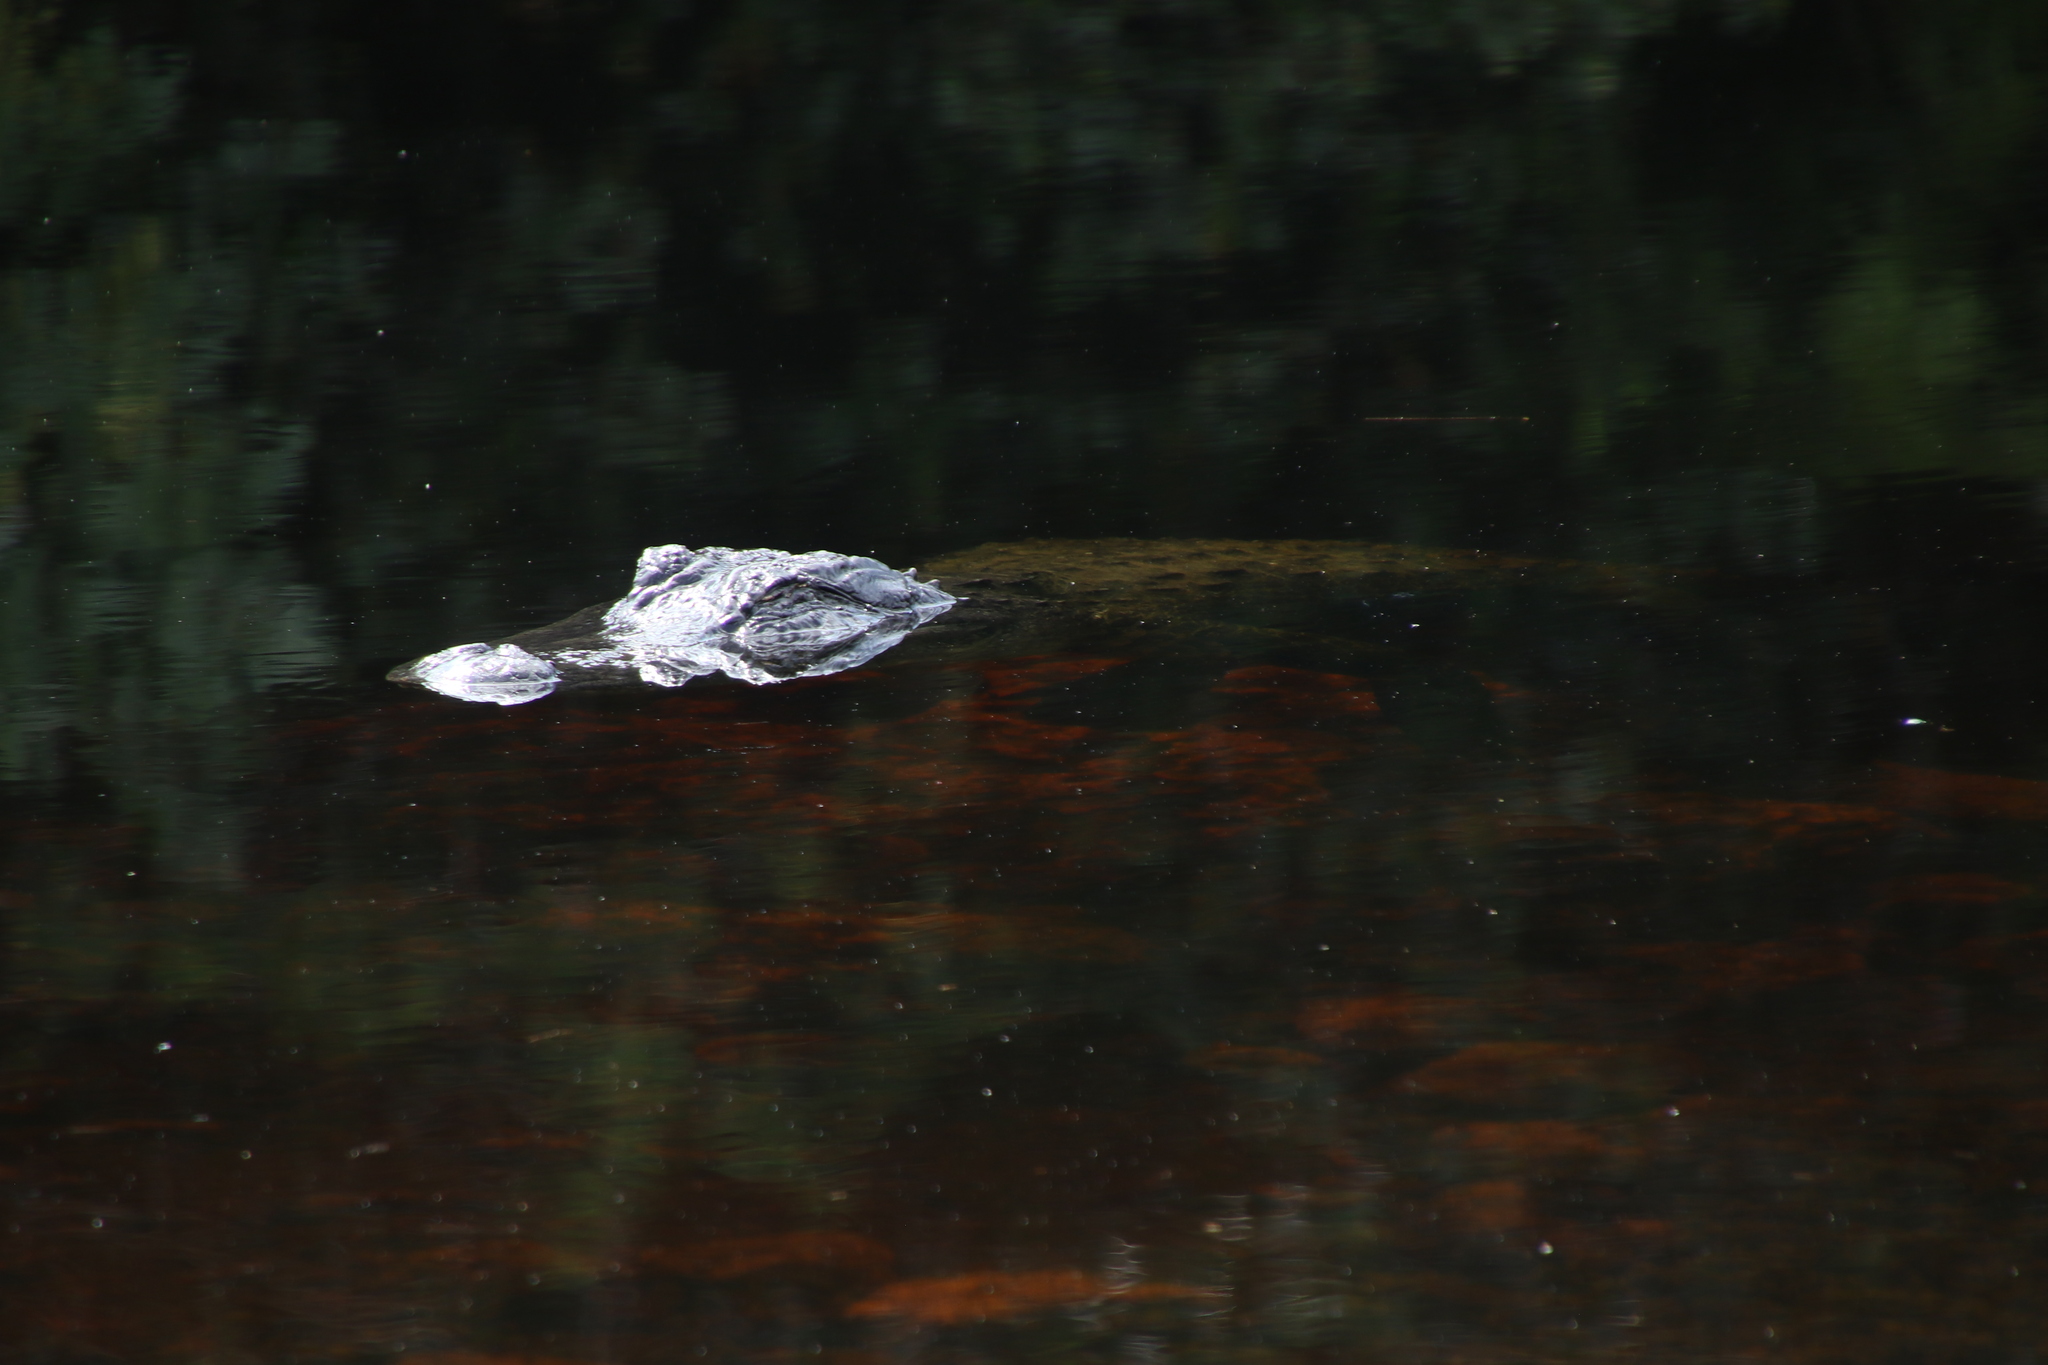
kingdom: Animalia
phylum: Chordata
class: Crocodylia
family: Alligatoridae
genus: Alligator
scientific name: Alligator mississippiensis
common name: American alligator
